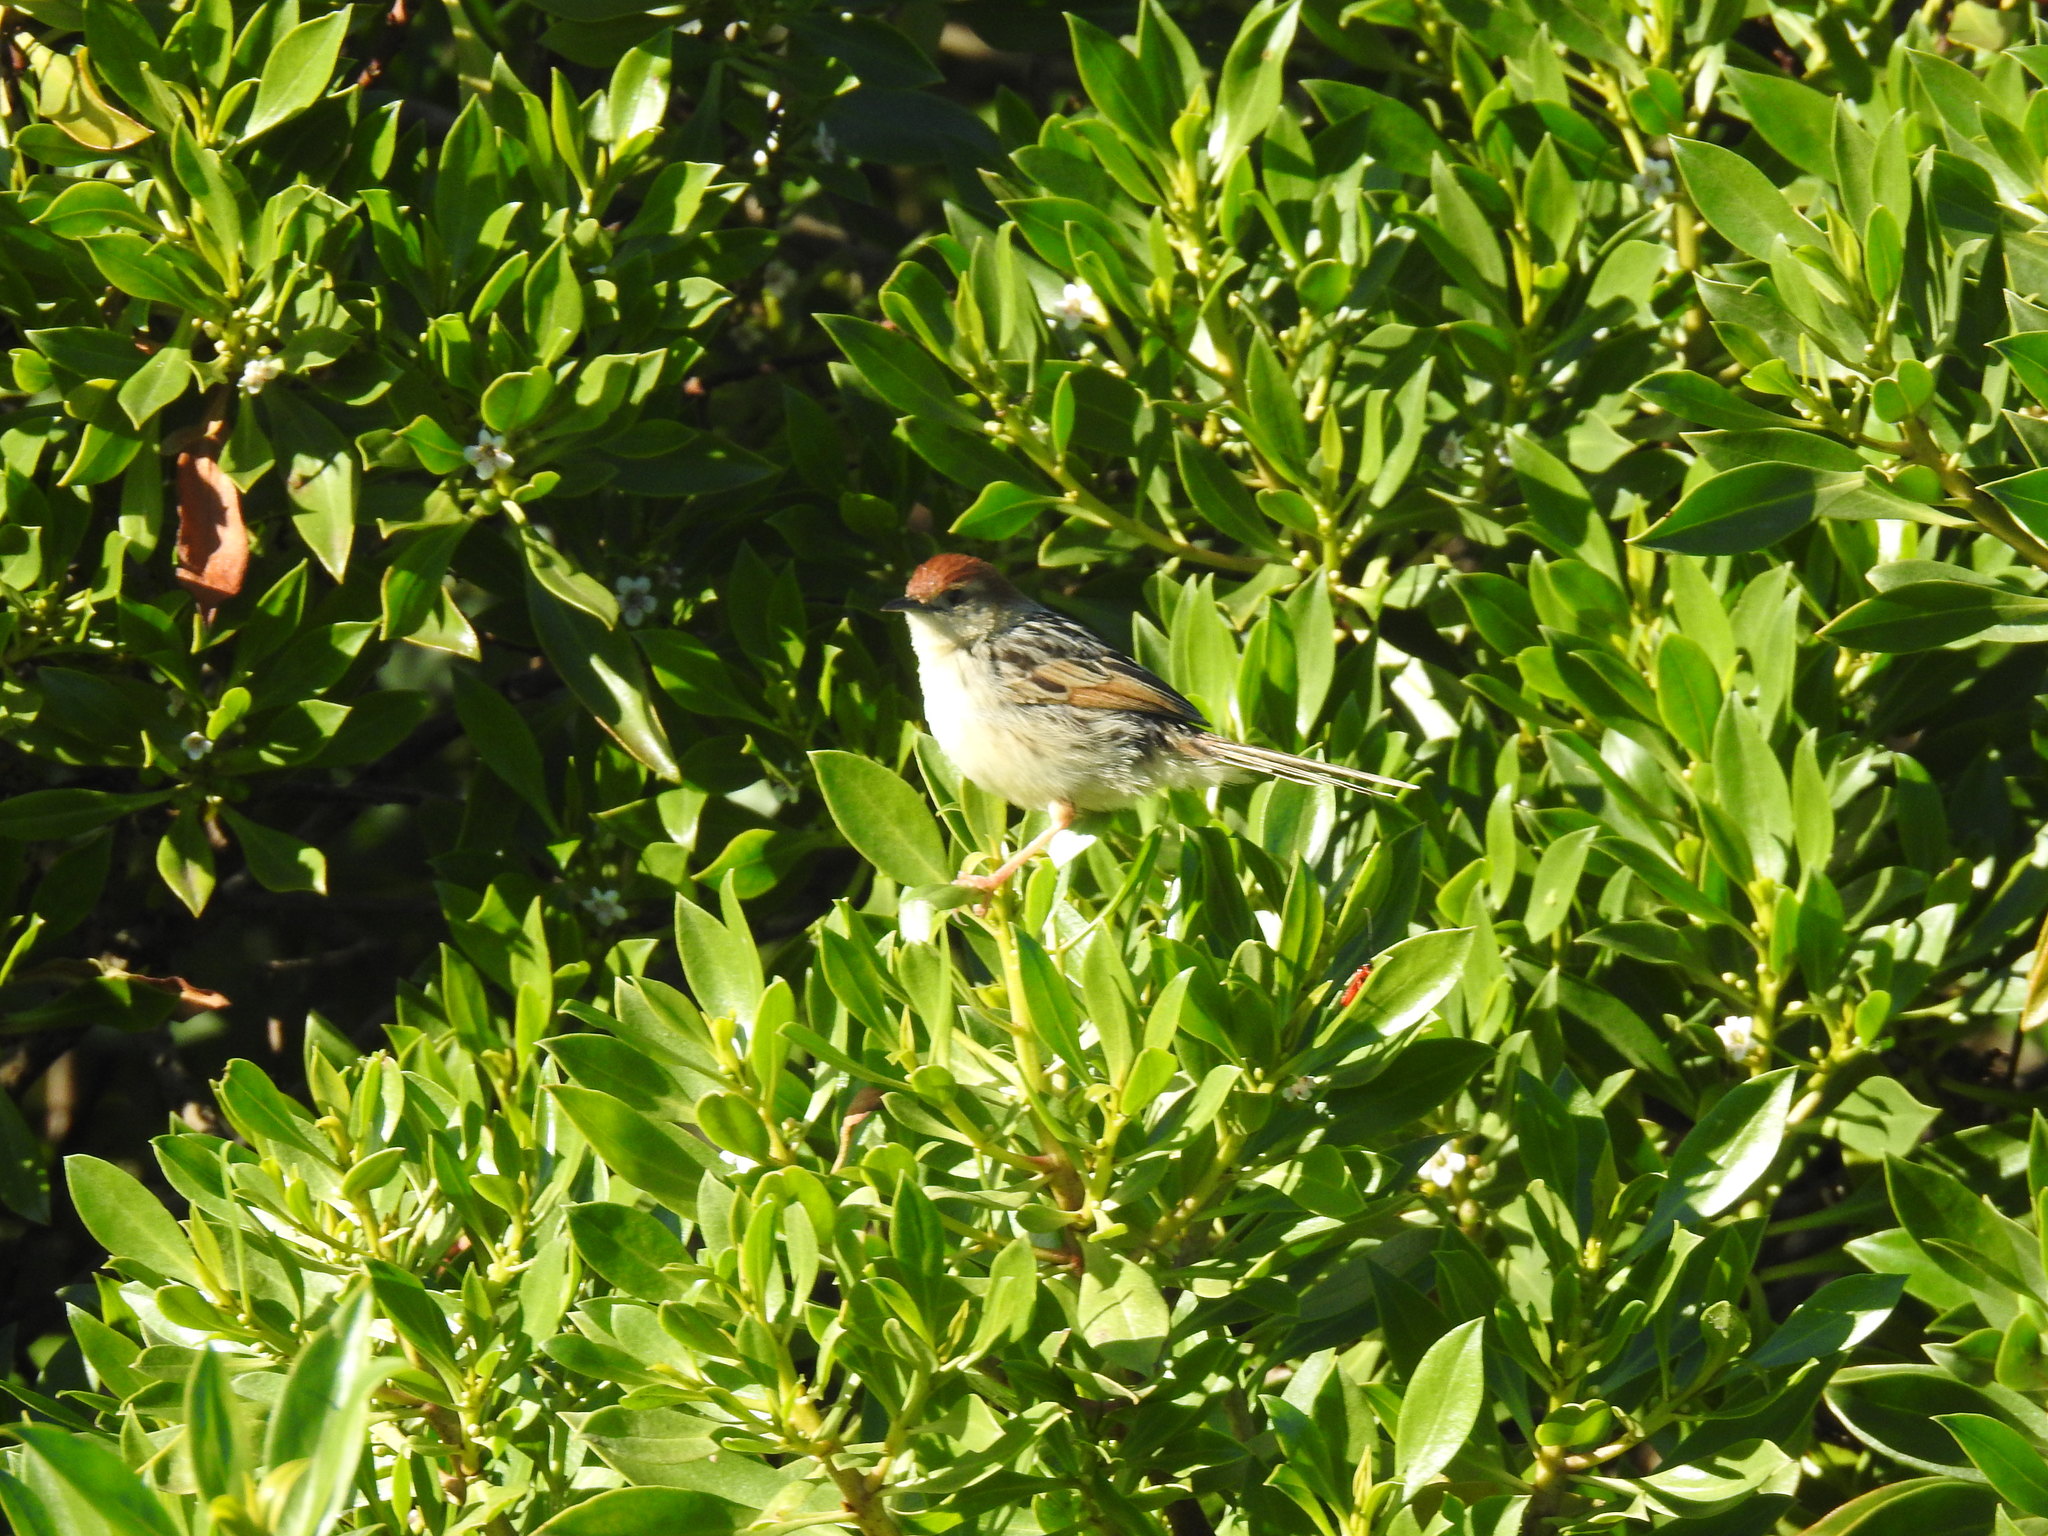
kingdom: Animalia
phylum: Chordata
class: Aves
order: Passeriformes
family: Cisticolidae
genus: Cisticola
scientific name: Cisticola tinniens
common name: Levaillant's cisticola
